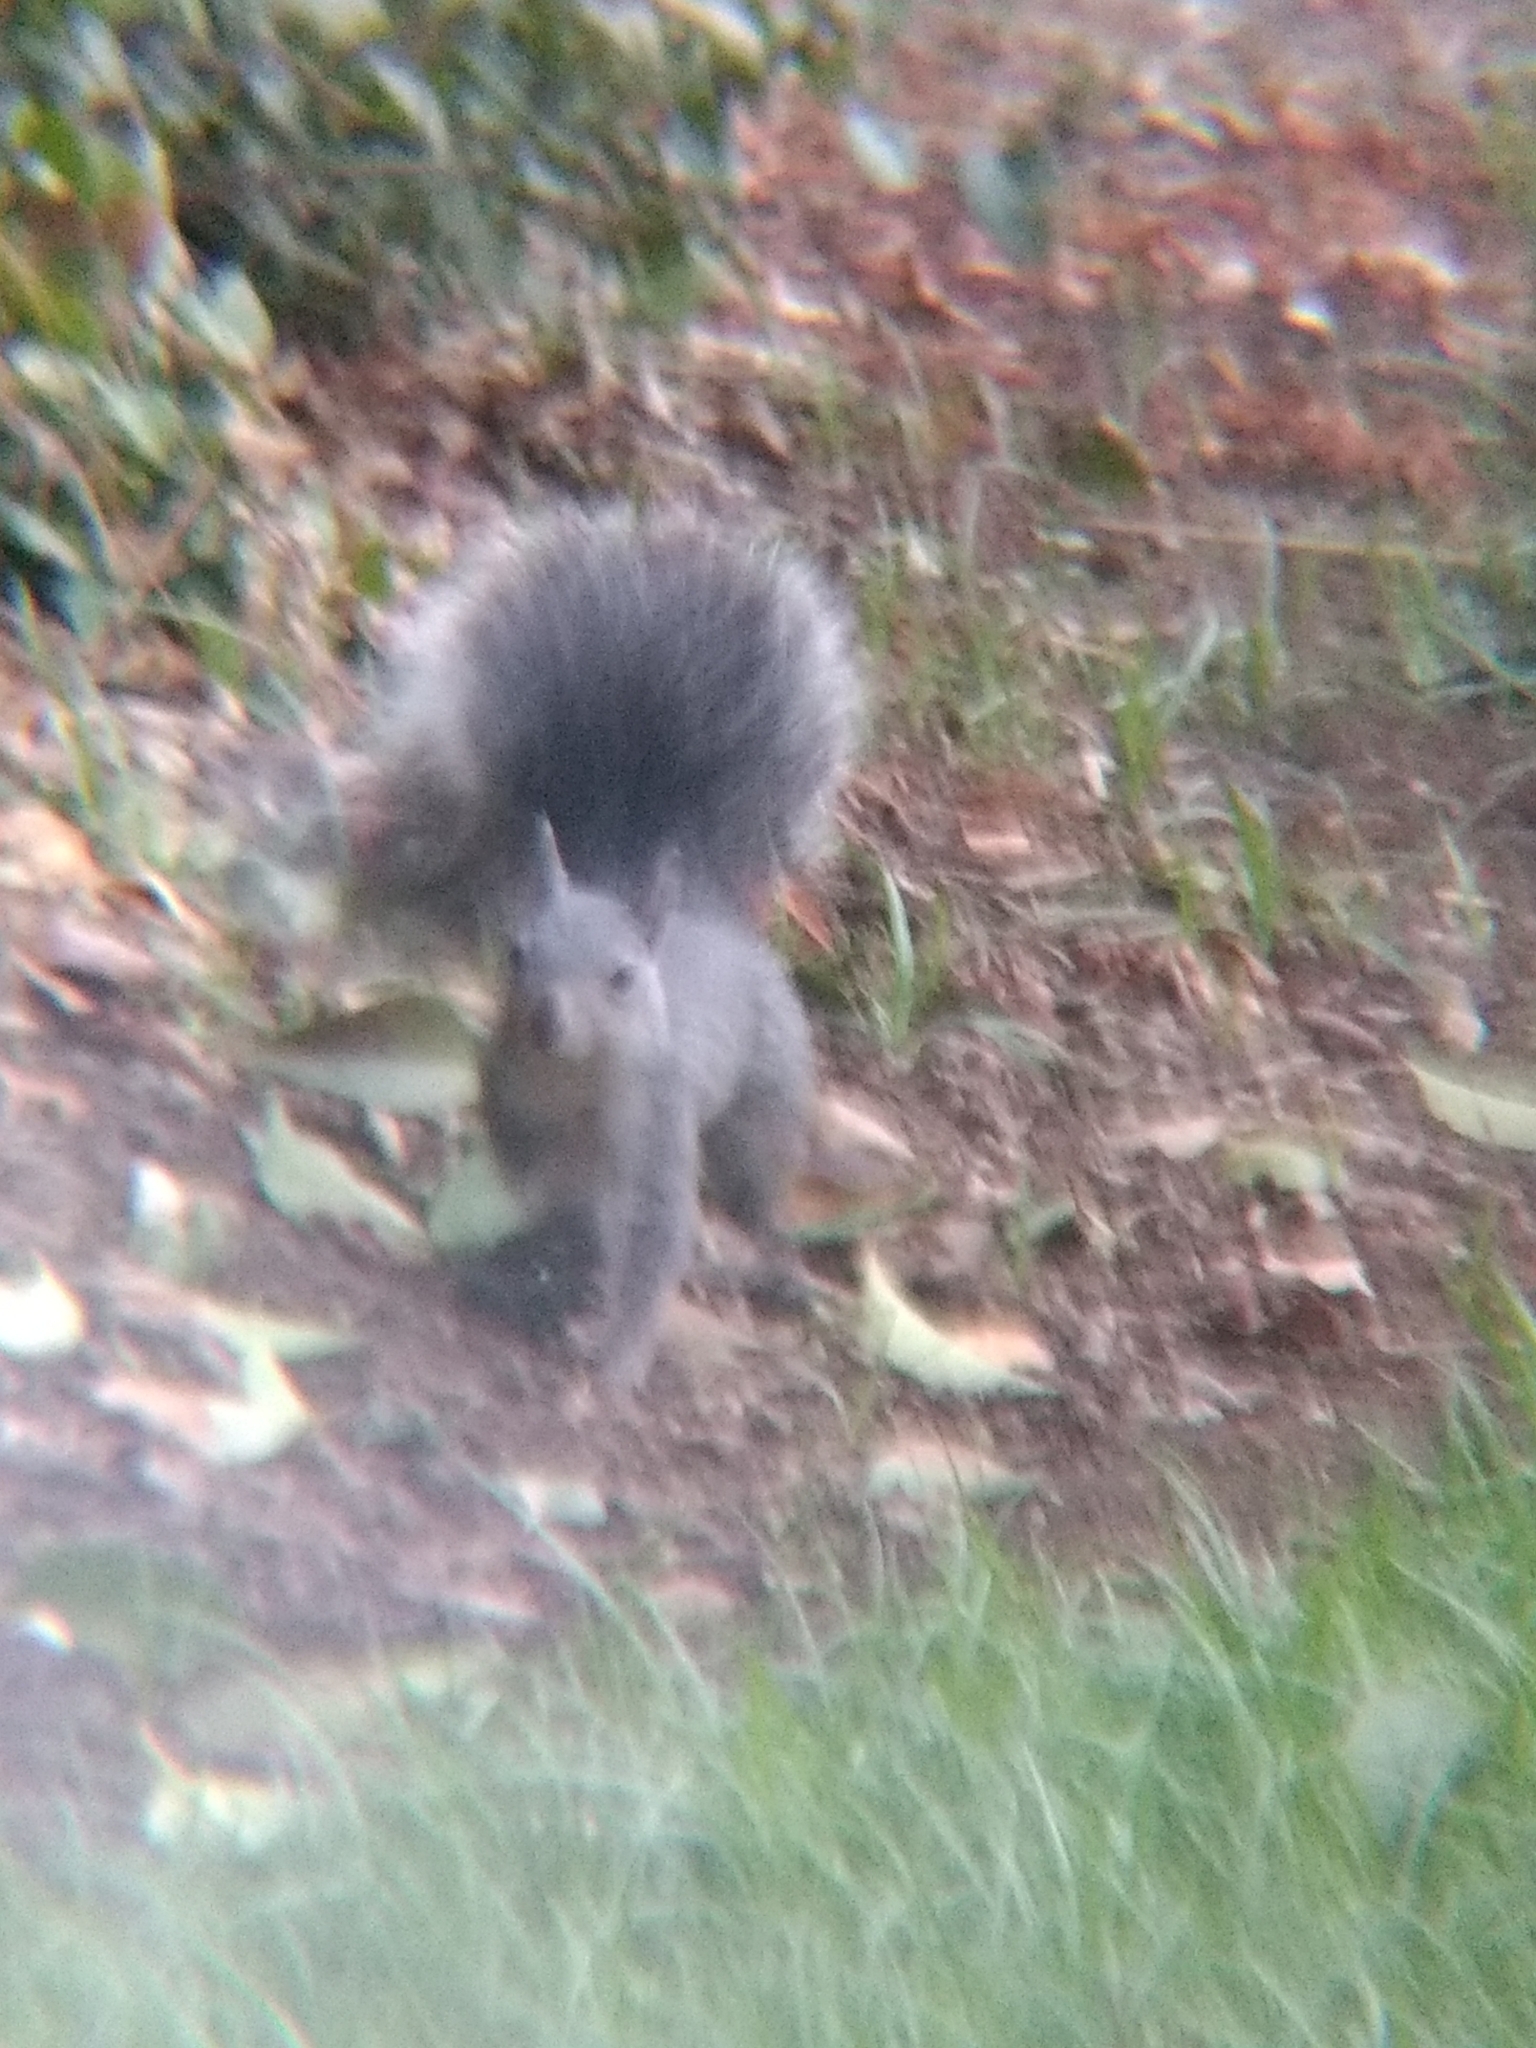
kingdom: Animalia
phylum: Chordata
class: Mammalia
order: Rodentia
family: Sciuridae
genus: Sciurus
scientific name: Sciurus griseus
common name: Western gray squirrel
